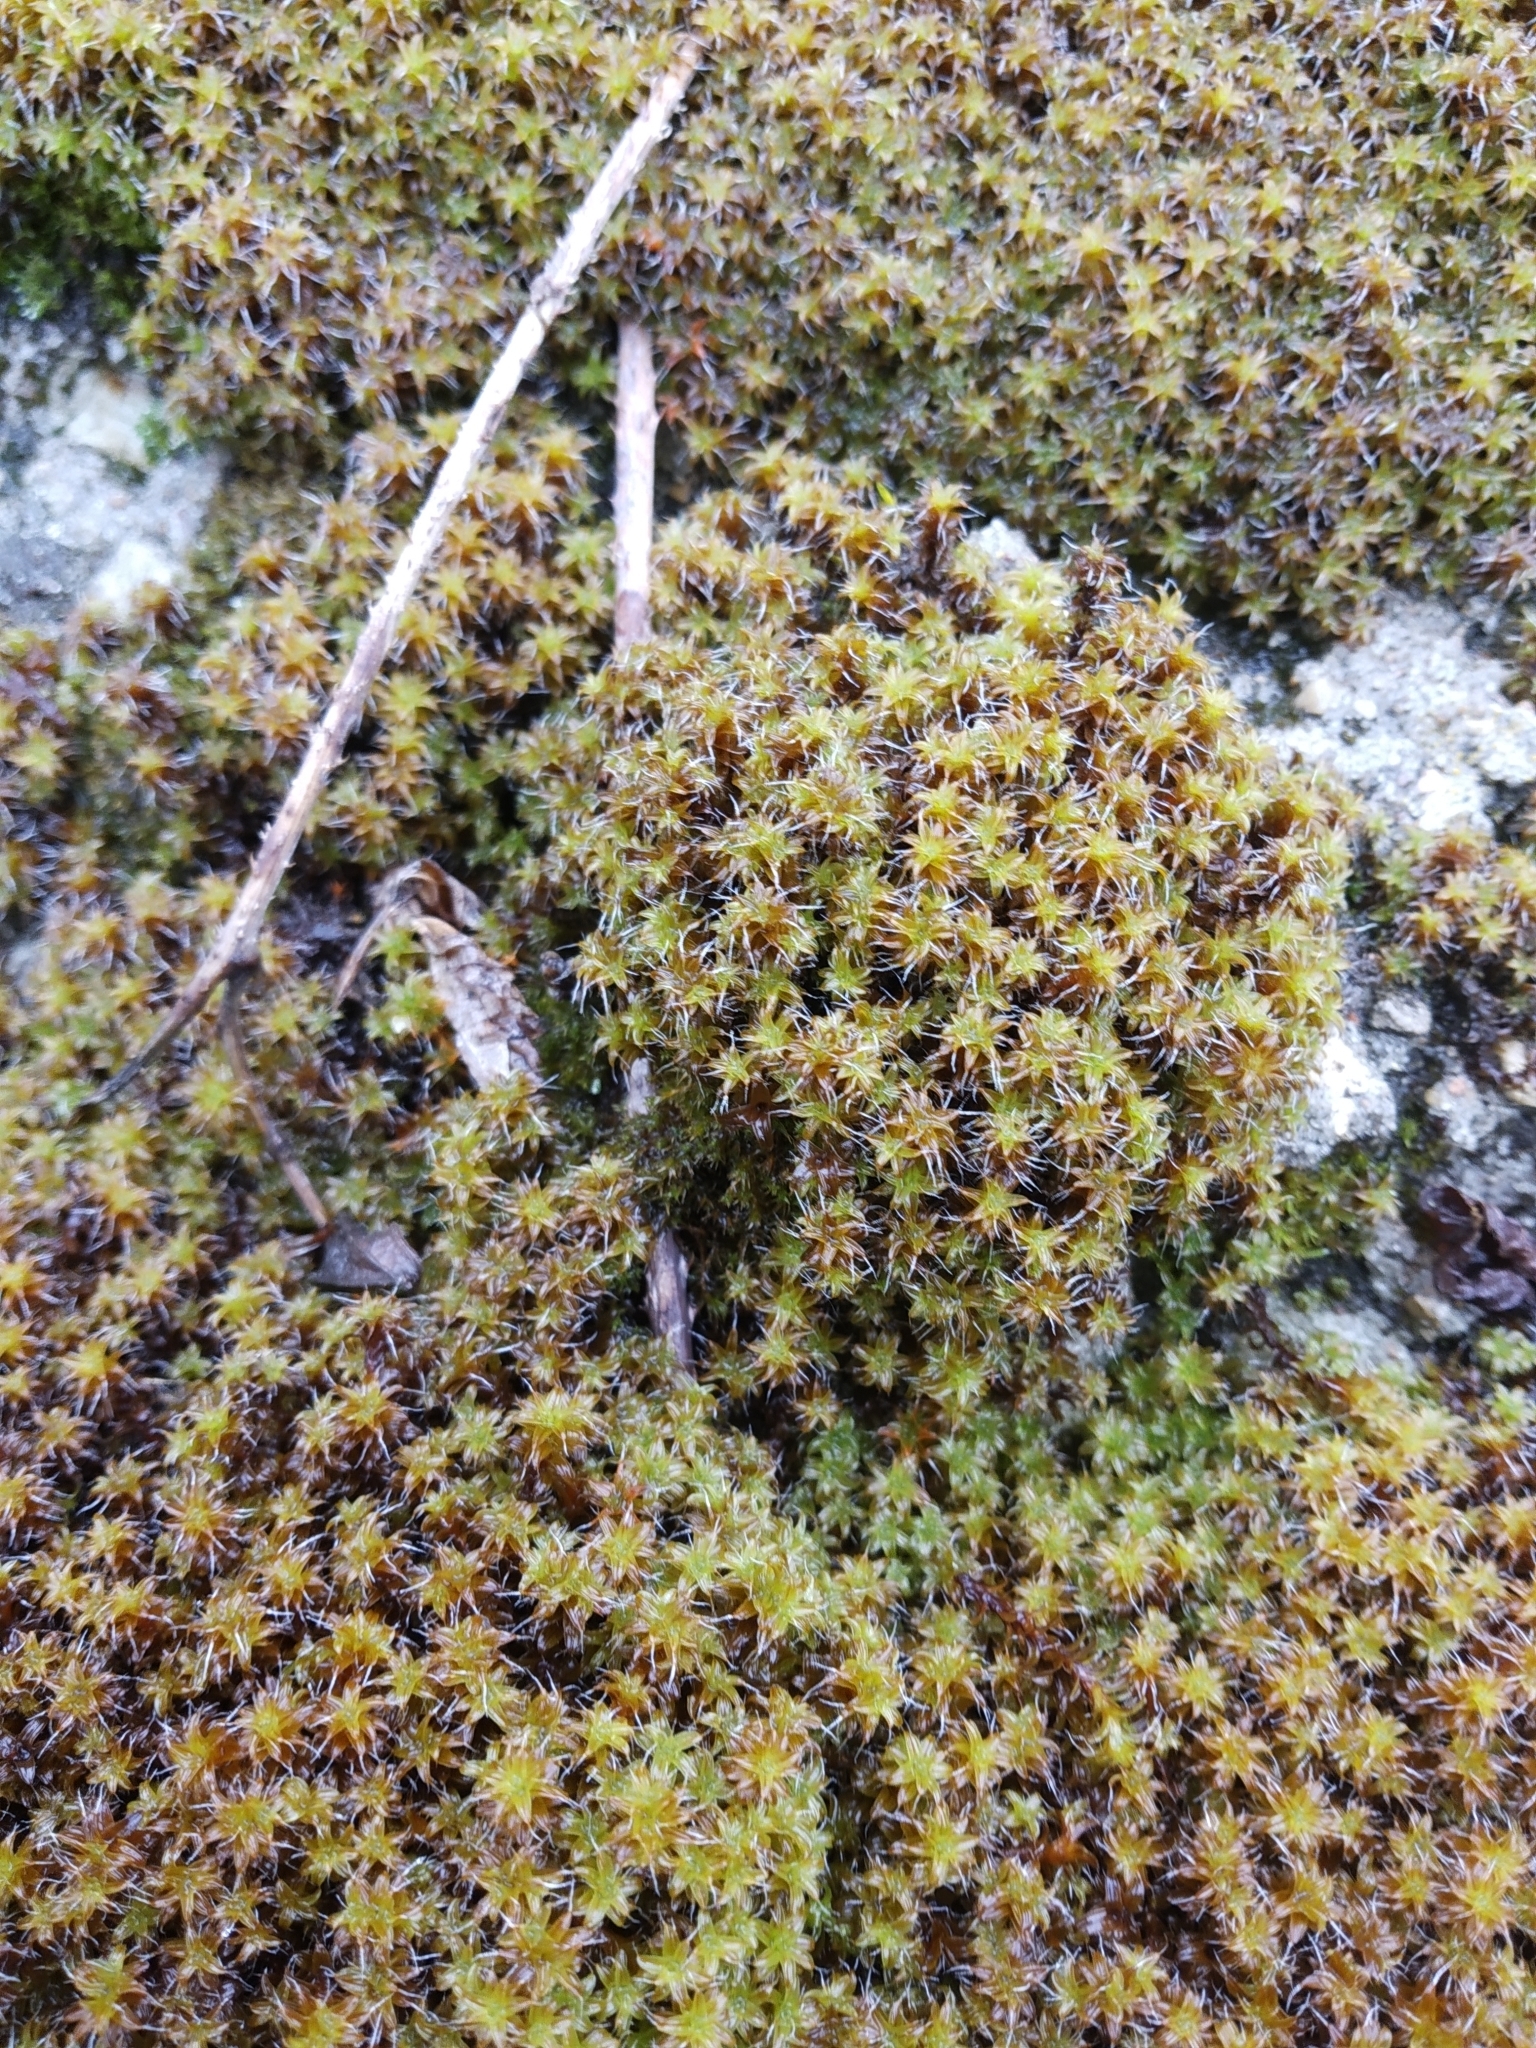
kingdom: Plantae
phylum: Bryophyta
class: Bryopsida
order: Pottiales
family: Pottiaceae
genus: Syntrichia
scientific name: Syntrichia ruralis
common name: Sidewalk screw moss
